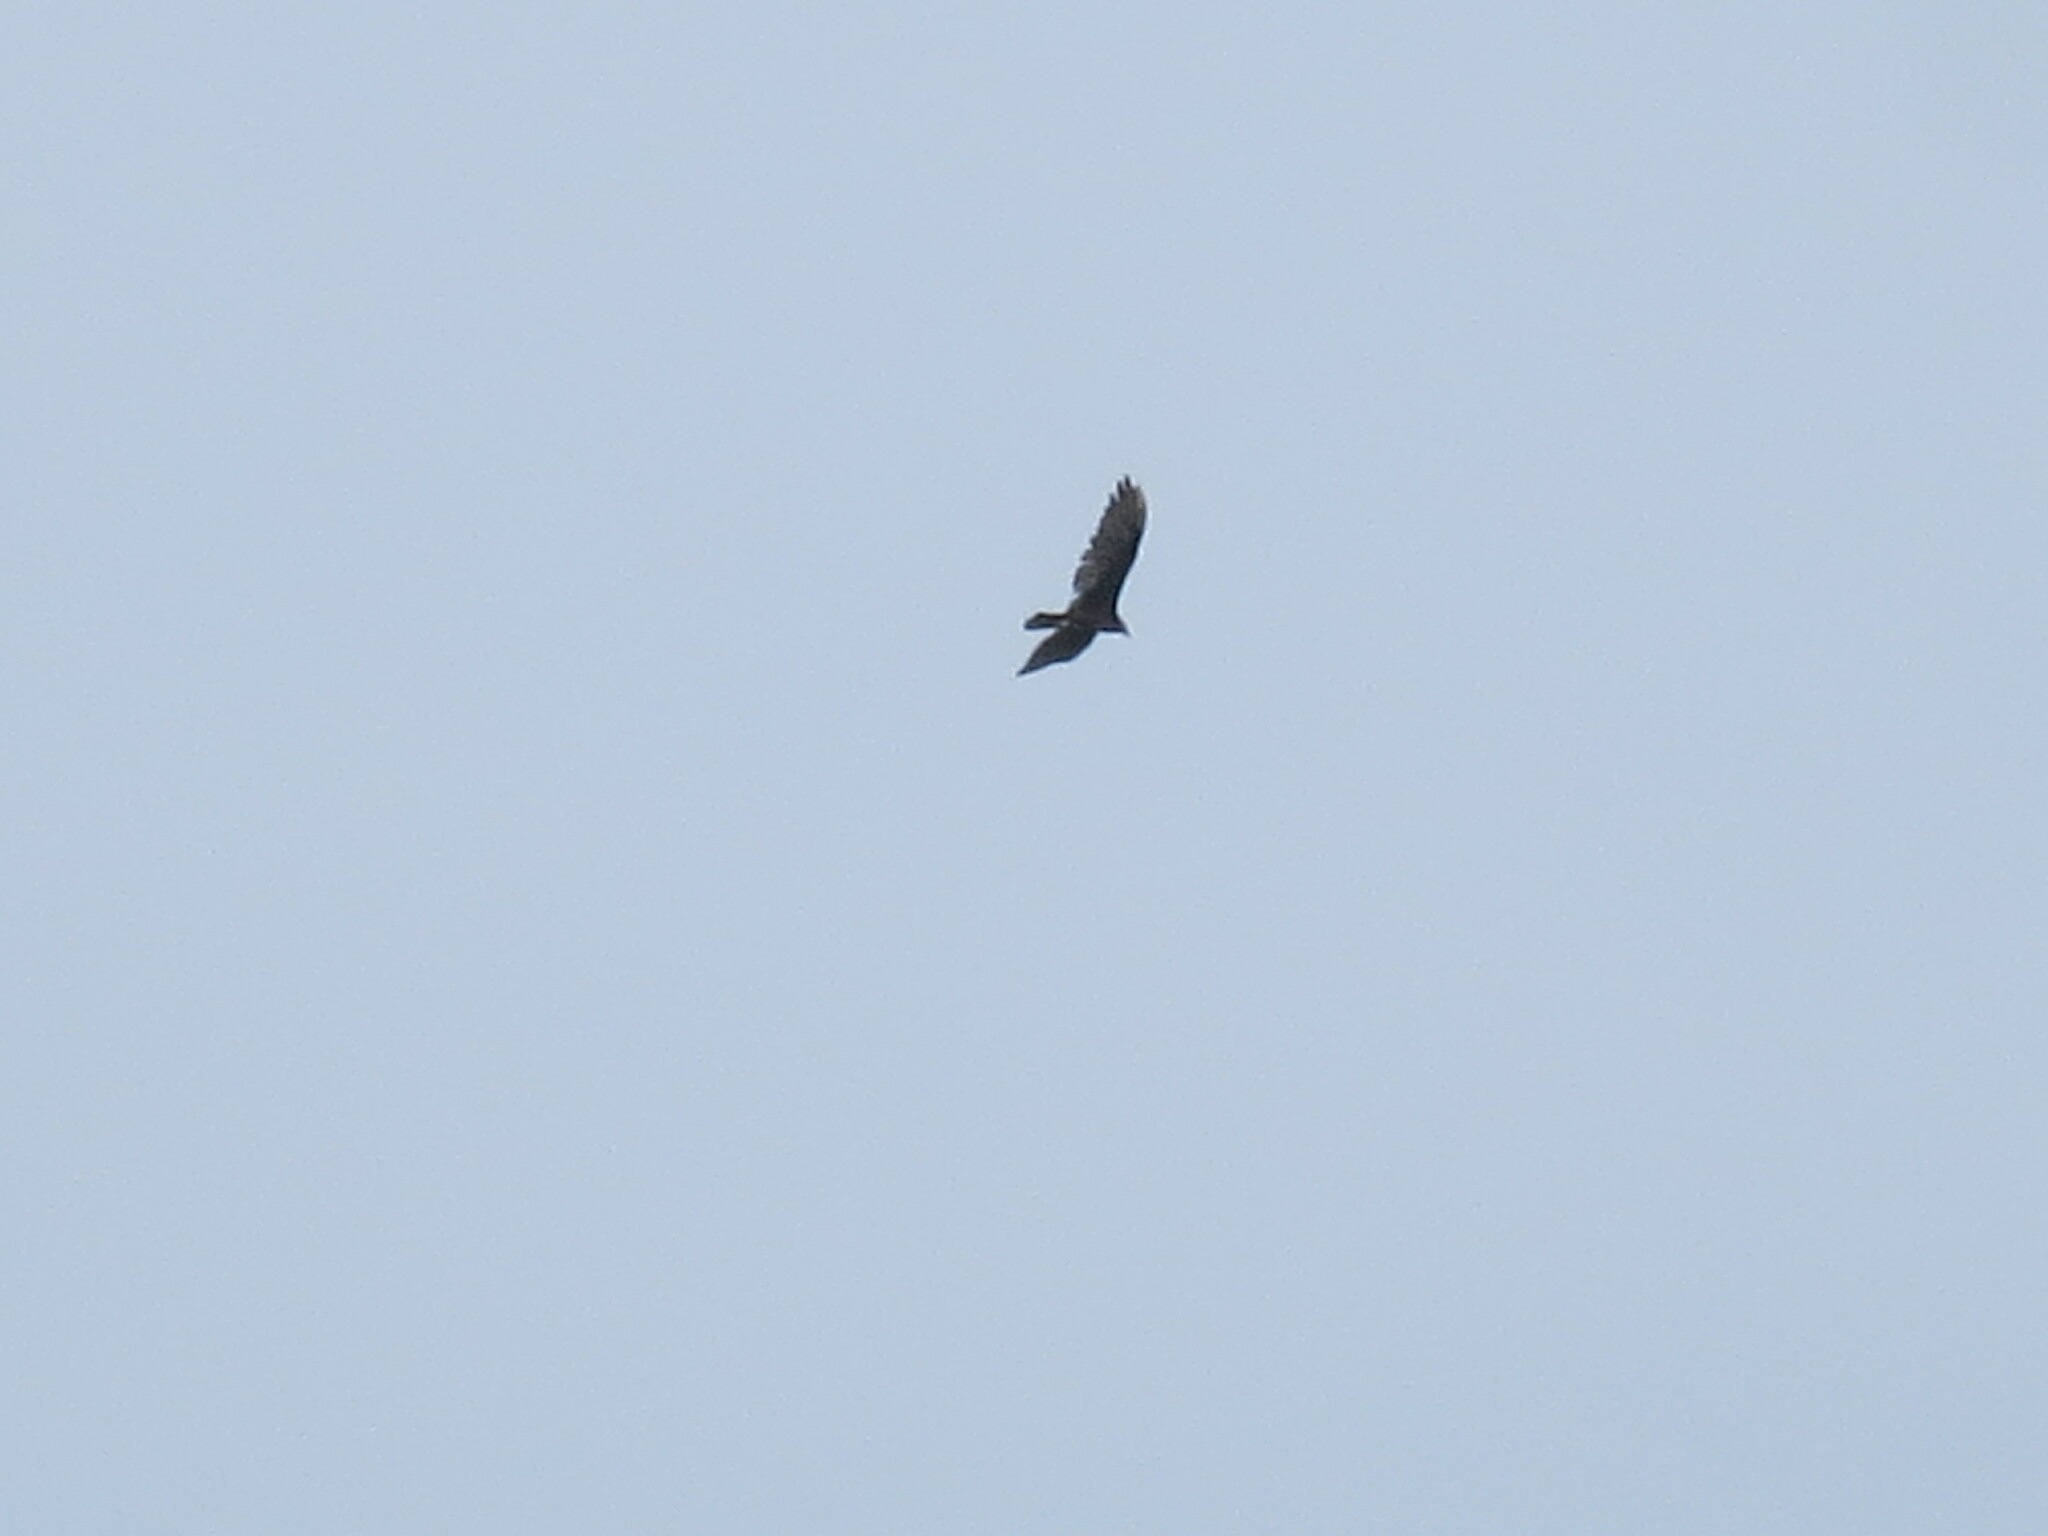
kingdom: Animalia
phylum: Chordata
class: Aves
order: Accipitriformes
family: Cathartidae
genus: Cathartes
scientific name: Cathartes aura
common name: Turkey vulture
